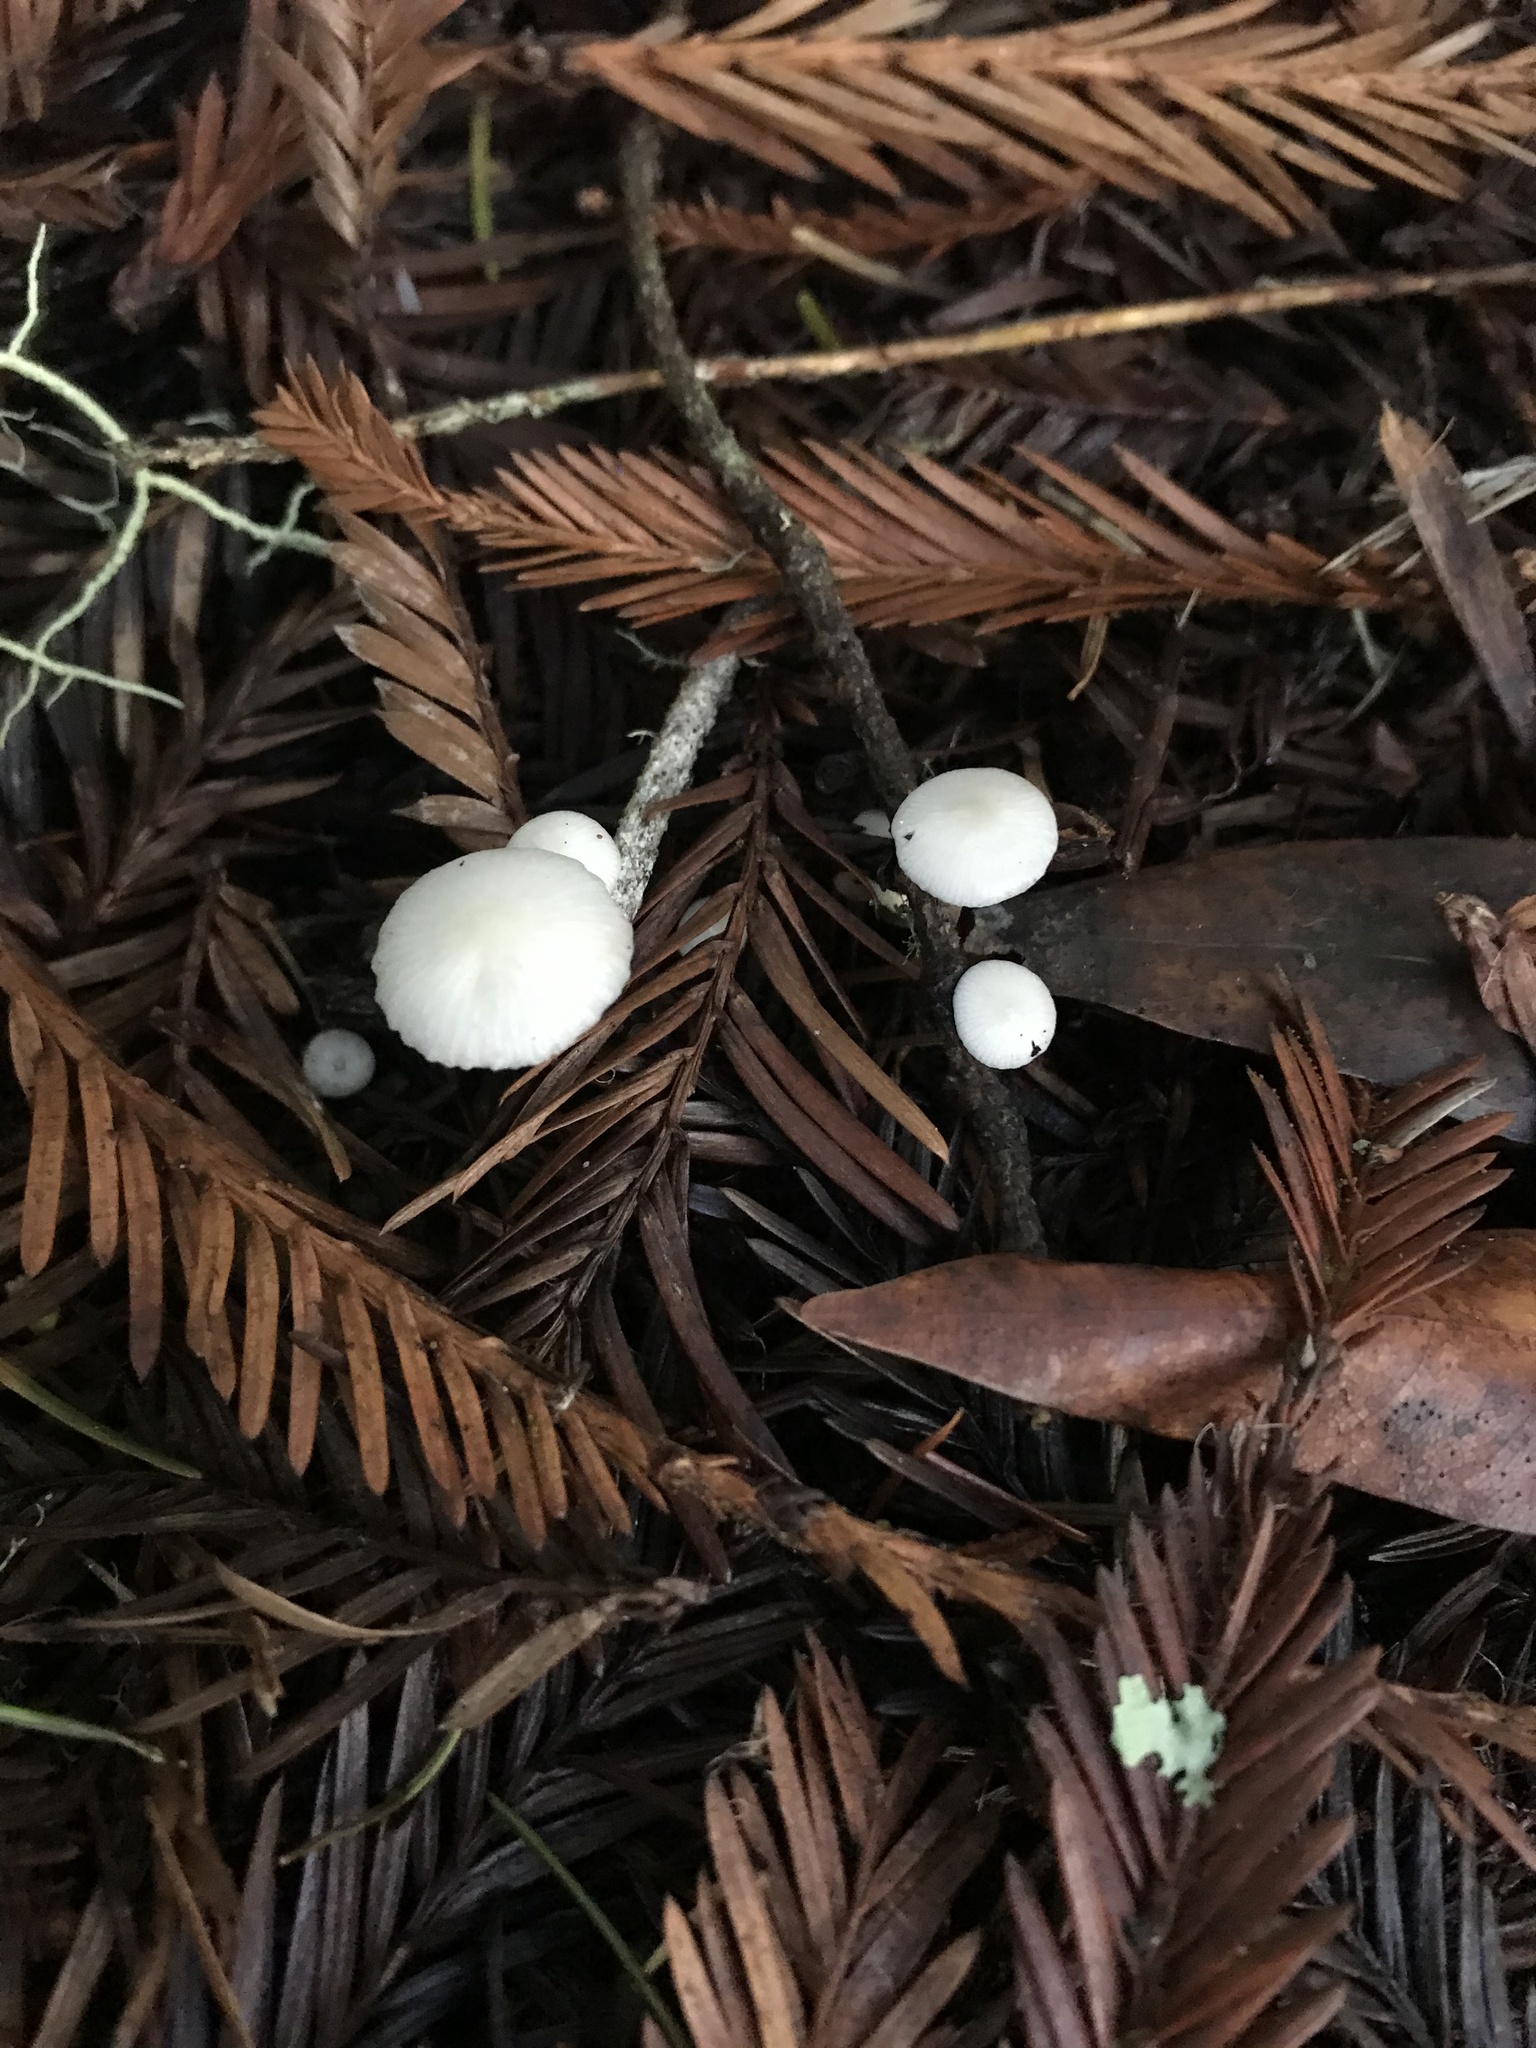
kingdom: Fungi
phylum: Basidiomycota
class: Agaricomycetes
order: Agaricales
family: Physalacriaceae
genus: Strobilurus
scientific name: Strobilurus trullisatus
